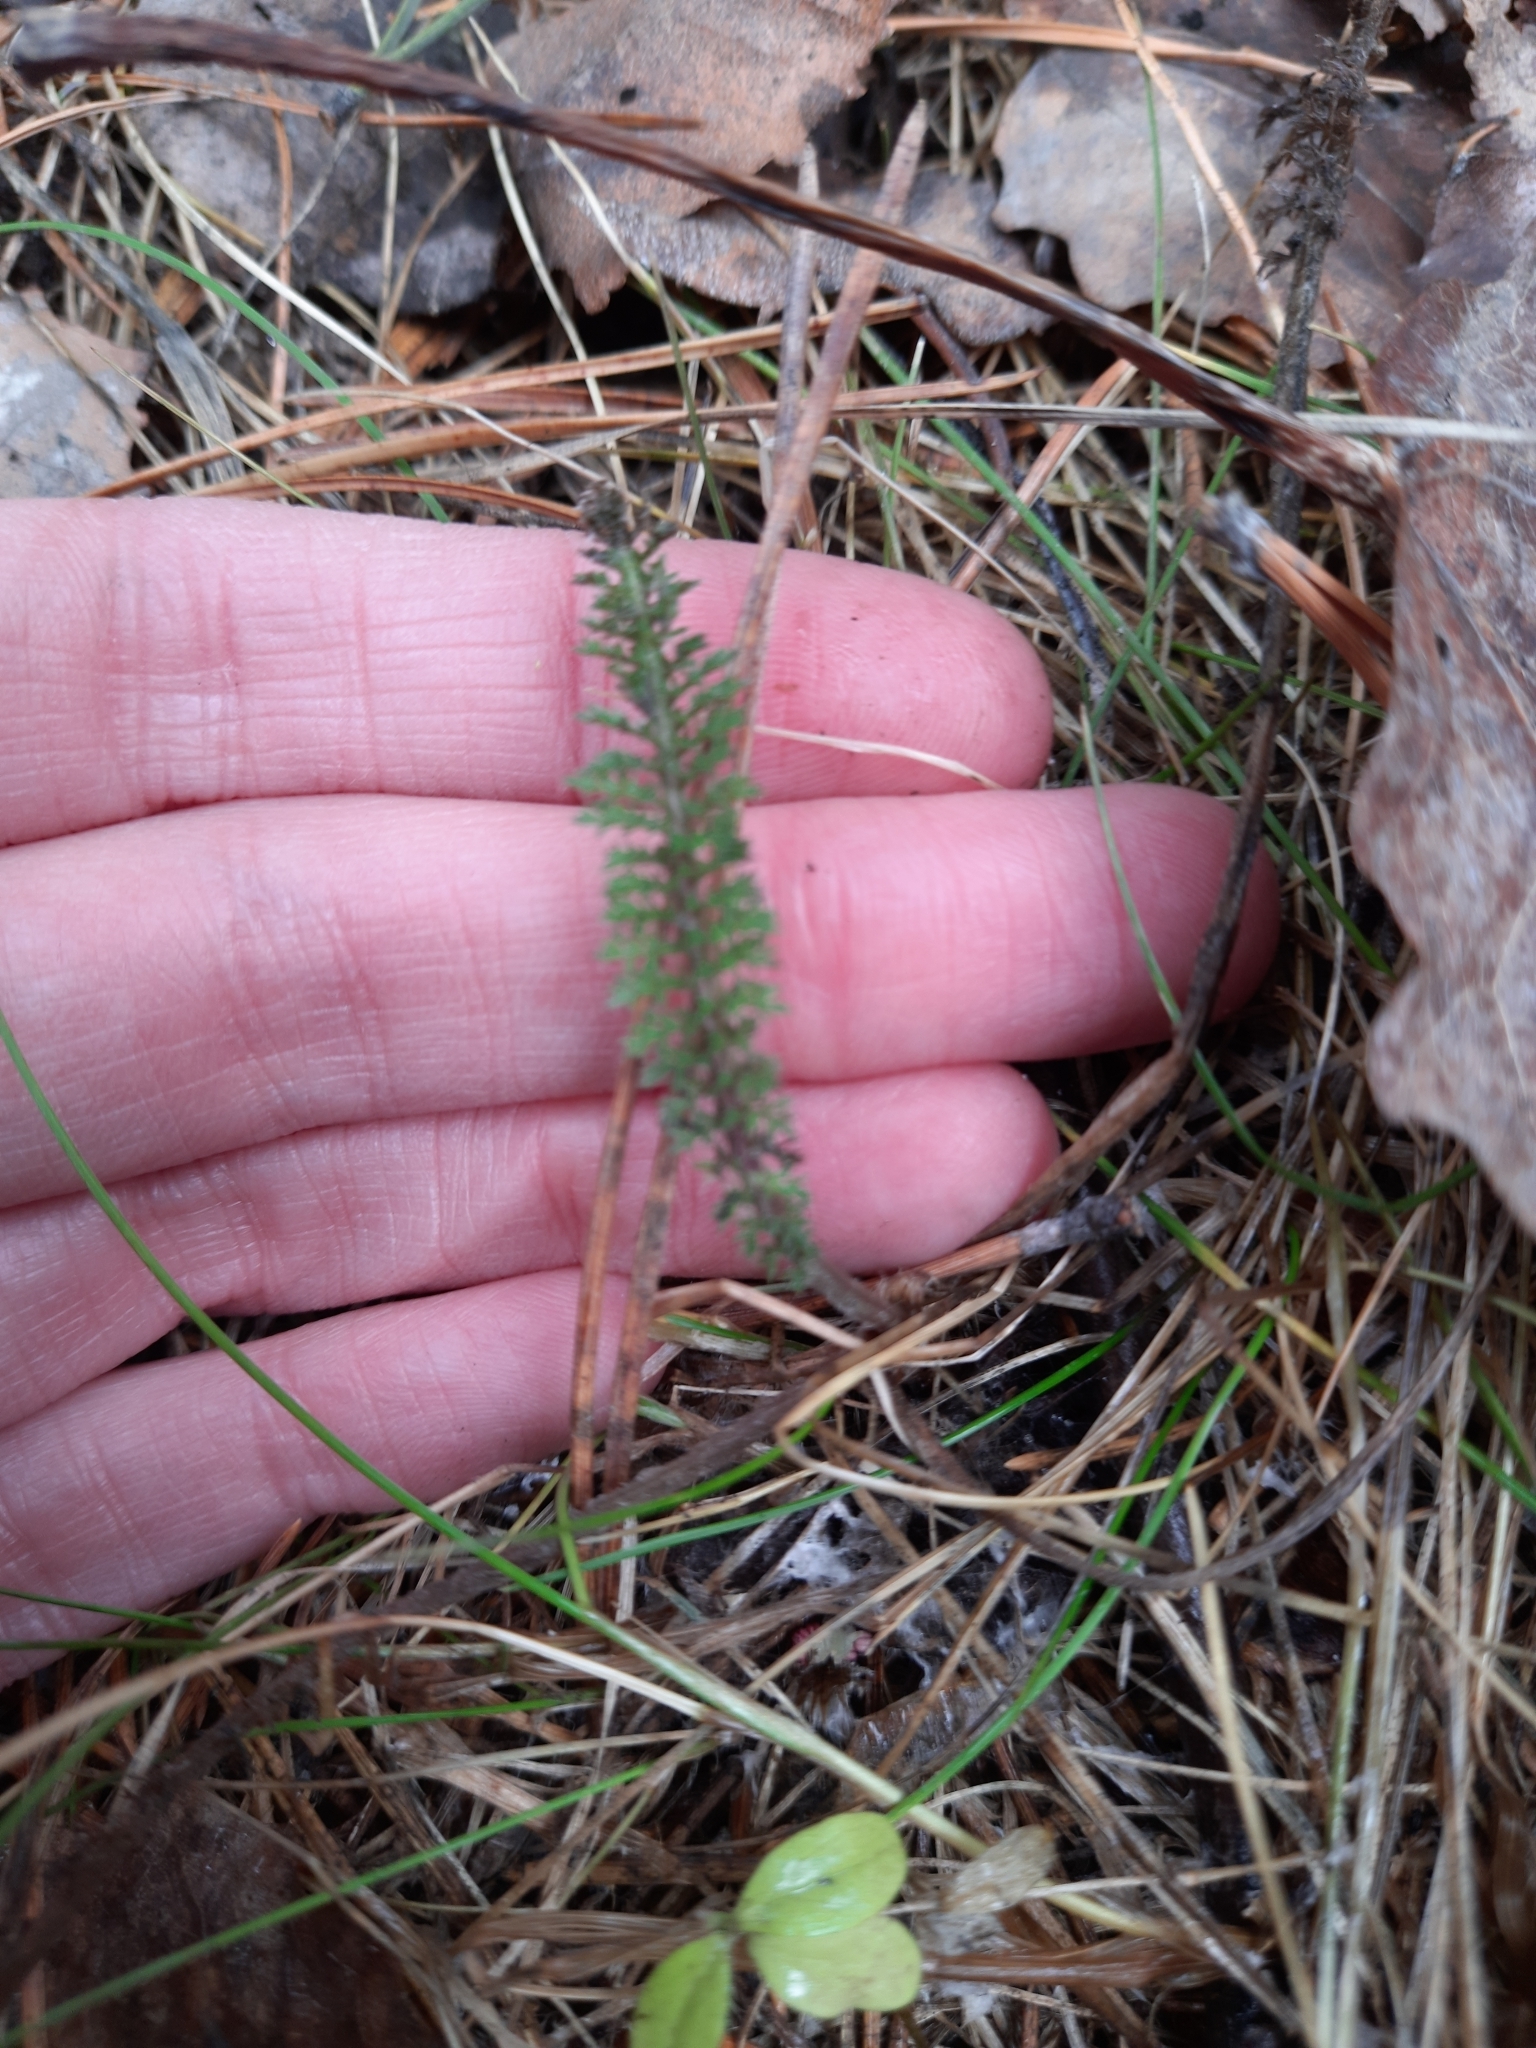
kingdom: Plantae
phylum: Tracheophyta
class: Magnoliopsida
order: Asterales
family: Asteraceae
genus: Achillea
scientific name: Achillea millefolium
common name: Yarrow
